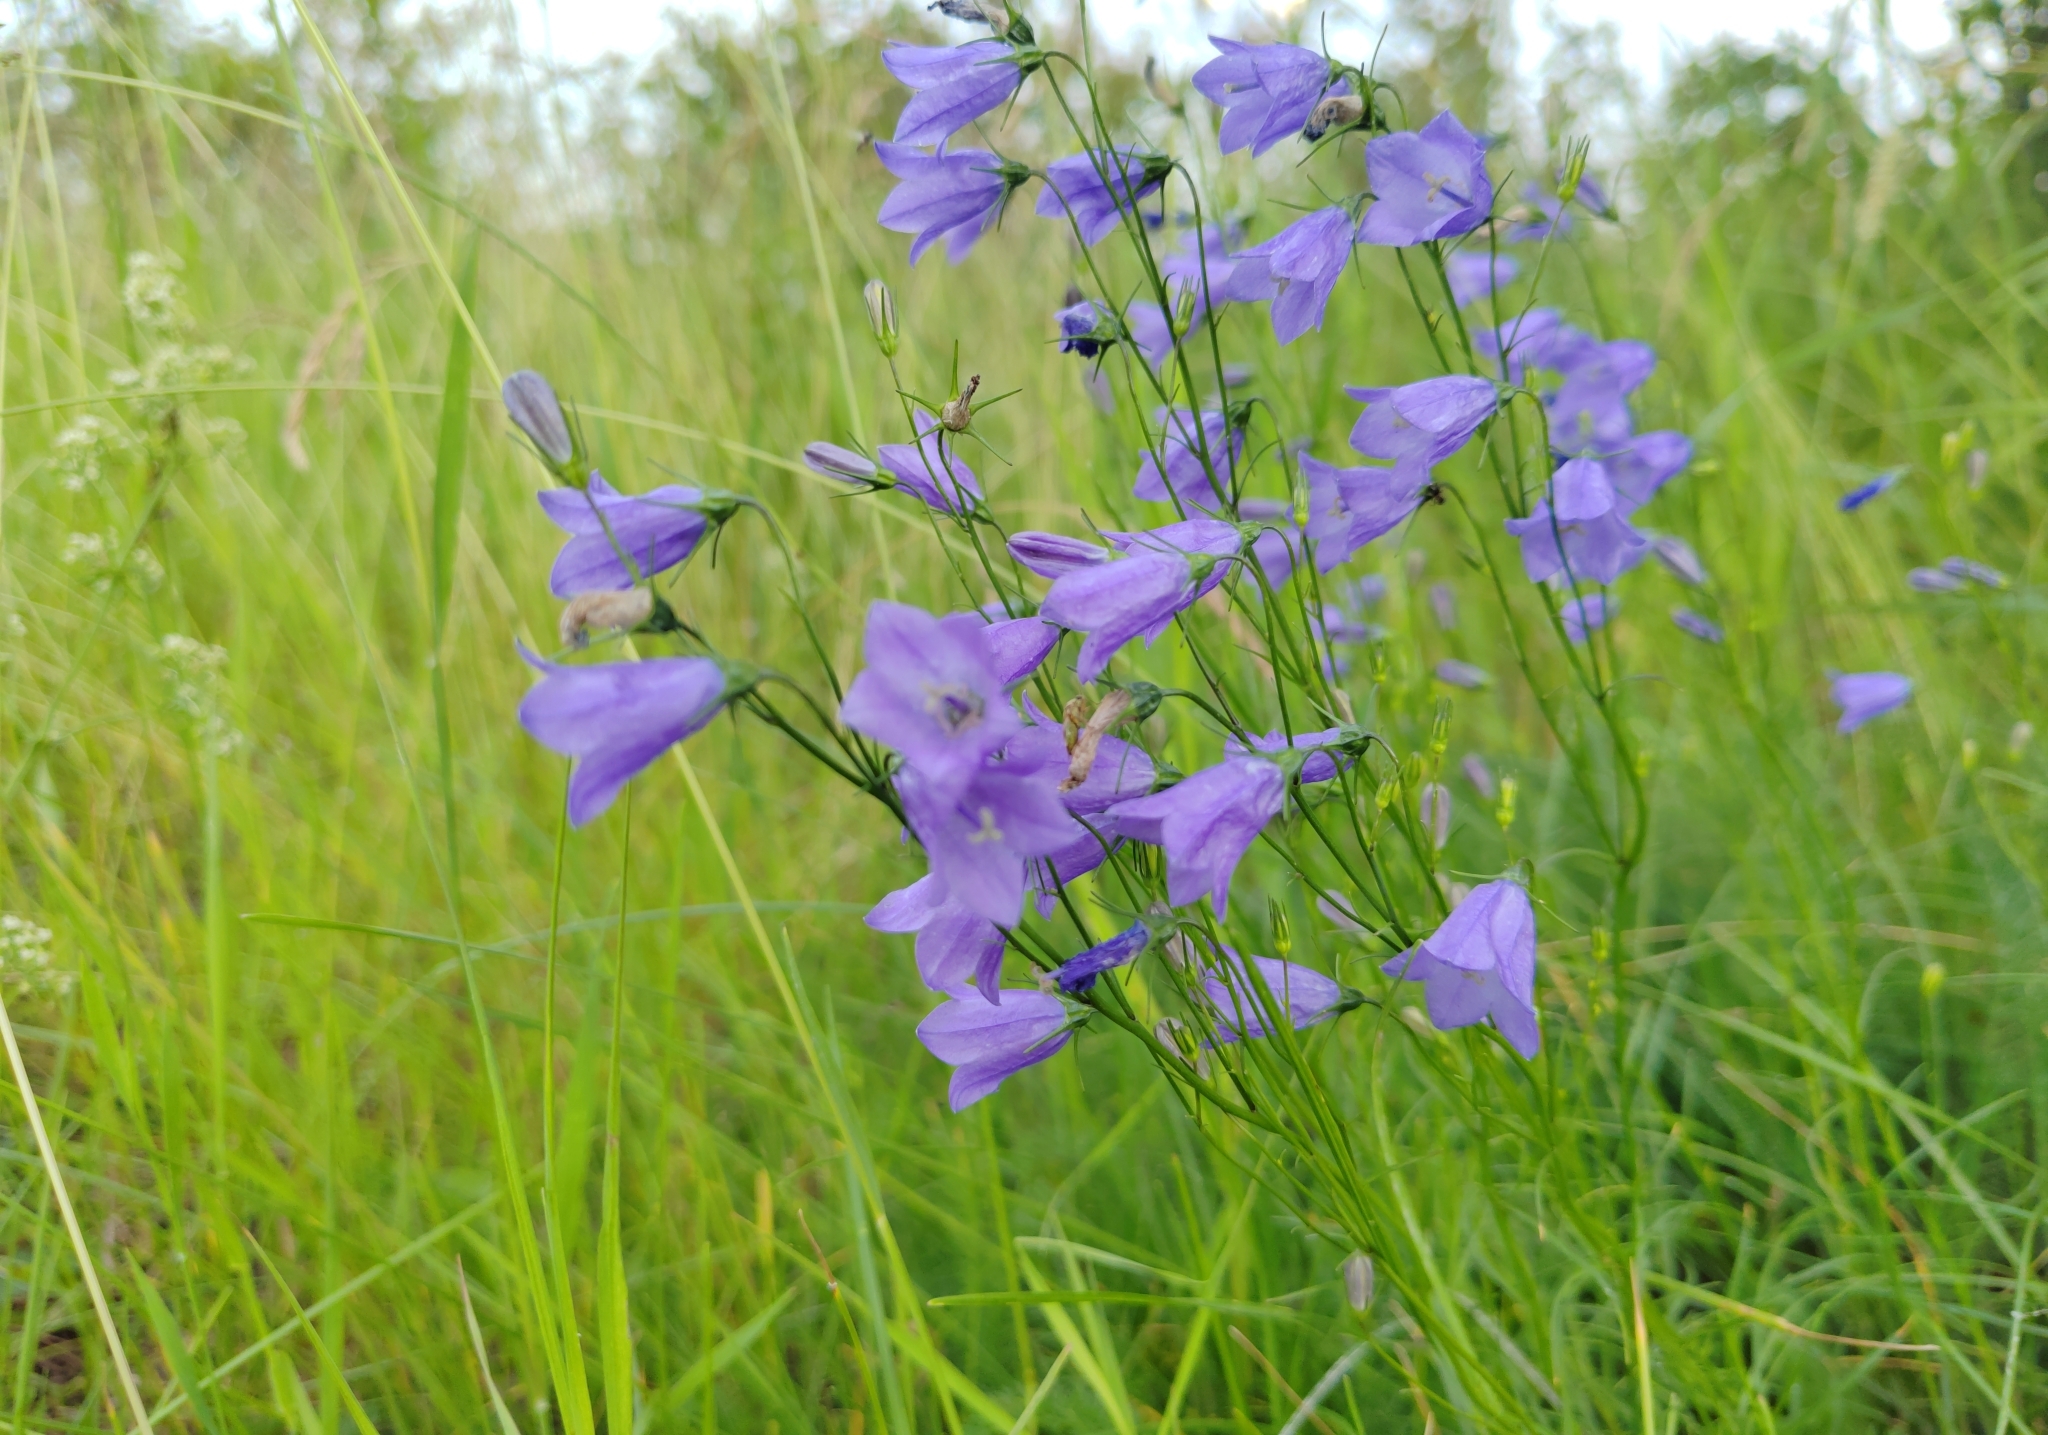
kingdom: Plantae
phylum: Tracheophyta
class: Magnoliopsida
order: Asterales
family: Campanulaceae
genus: Campanula
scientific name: Campanula rotundifolia
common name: Harebell
